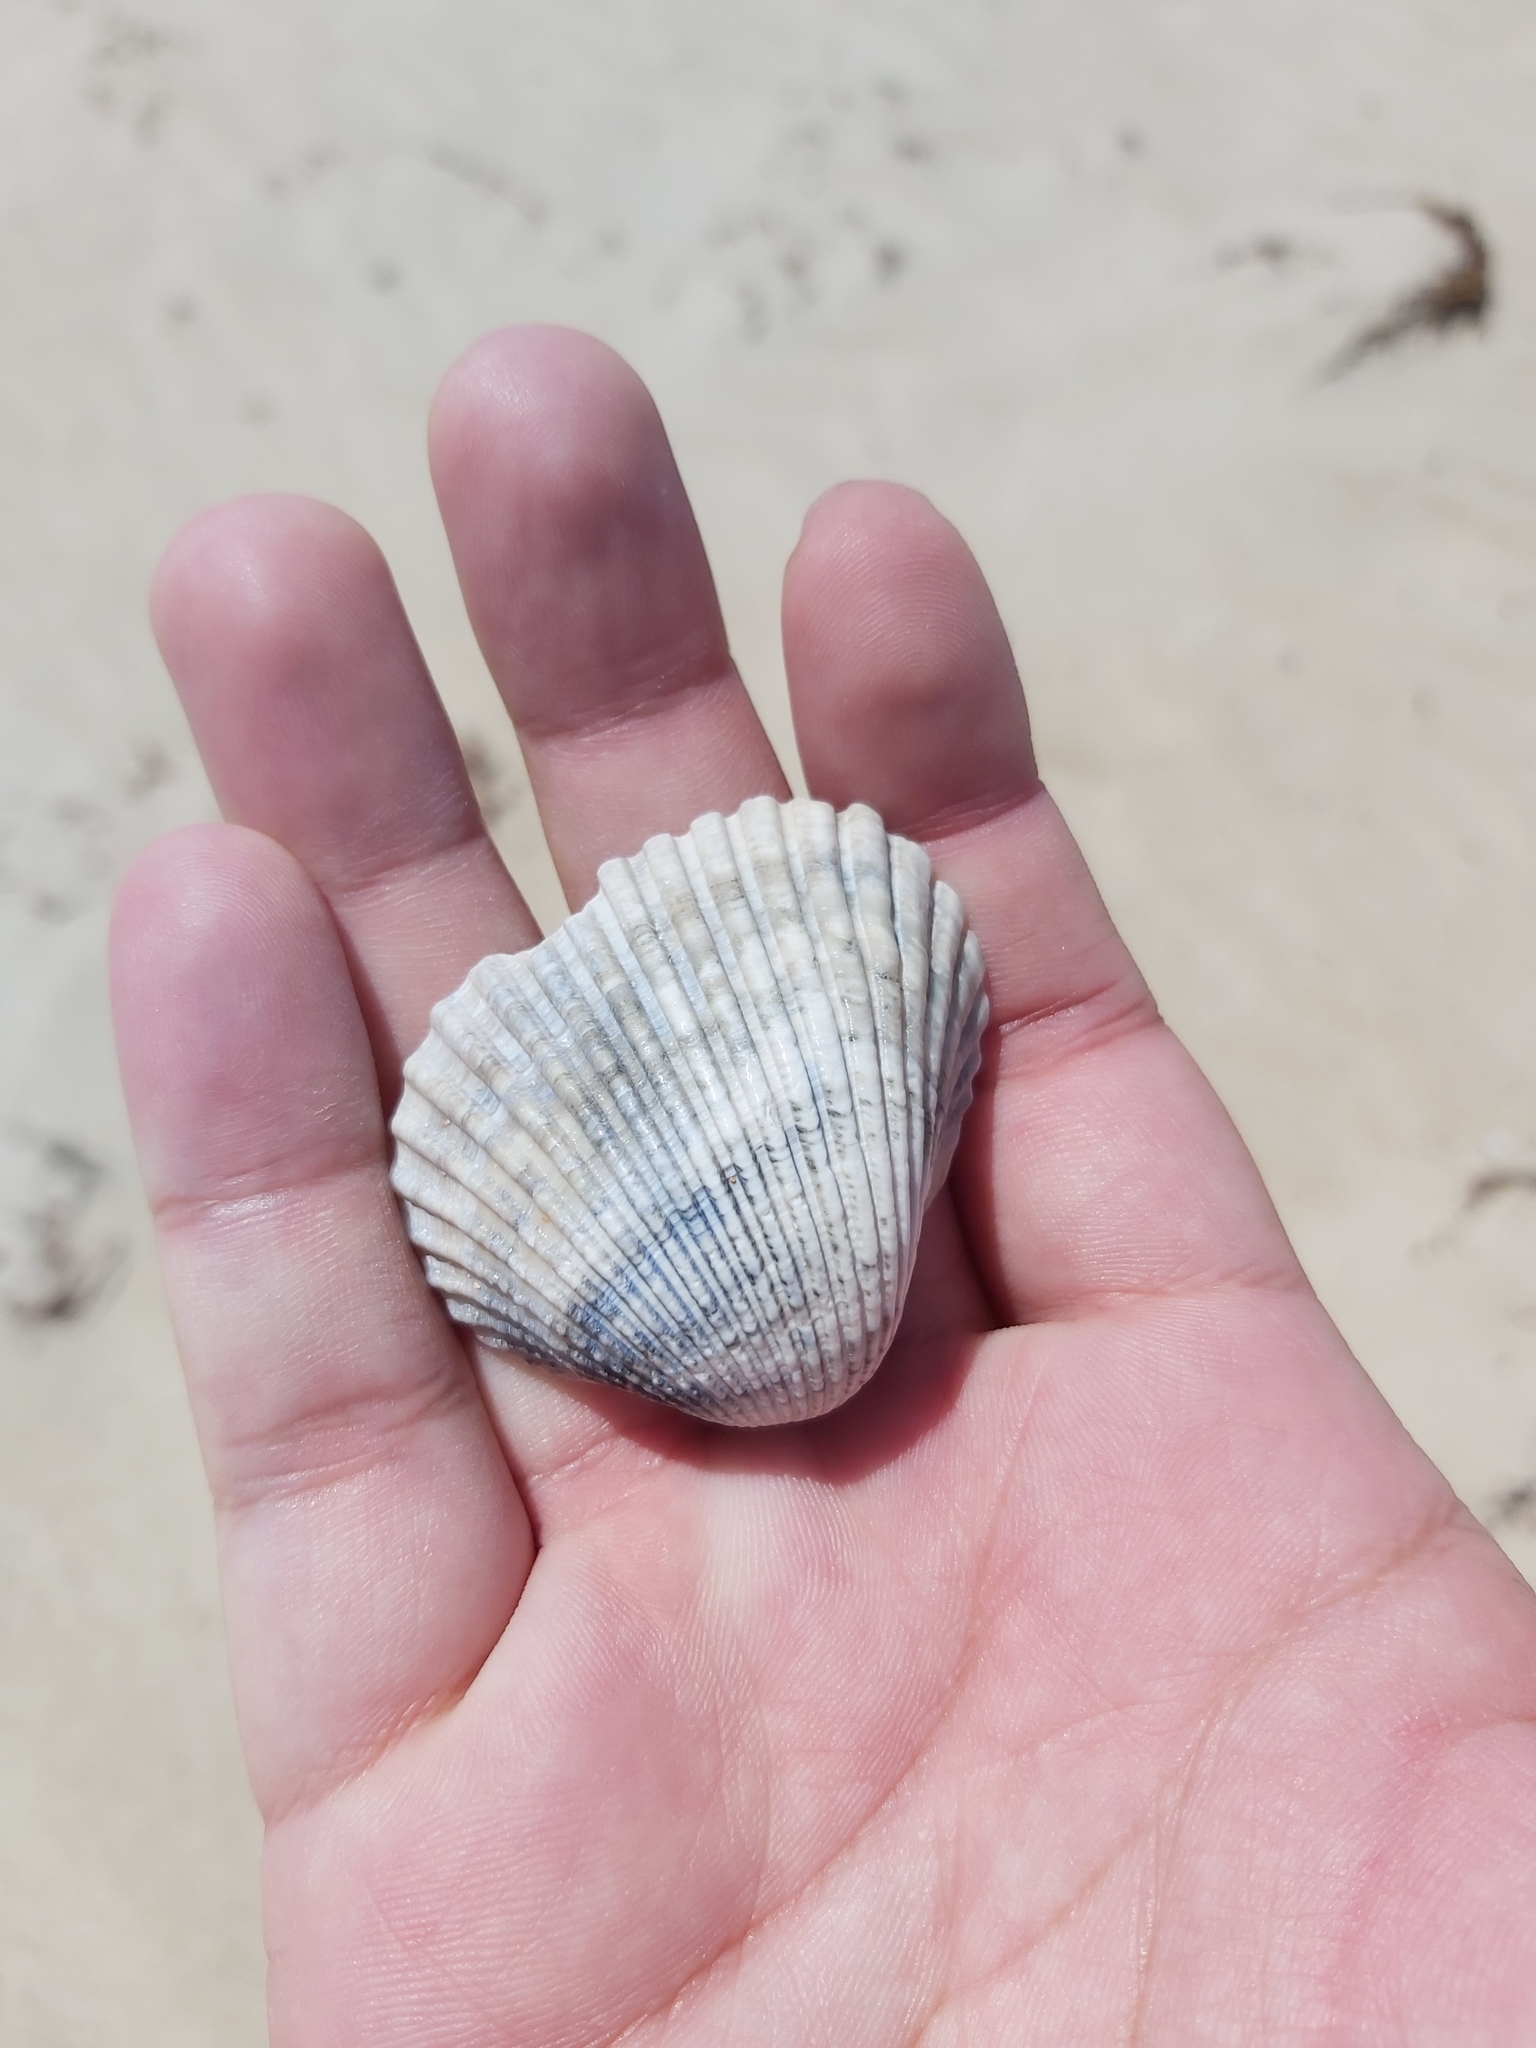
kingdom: Animalia
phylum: Mollusca
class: Bivalvia
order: Arcida
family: Arcidae
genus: Anadara
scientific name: Anadara trapezia
